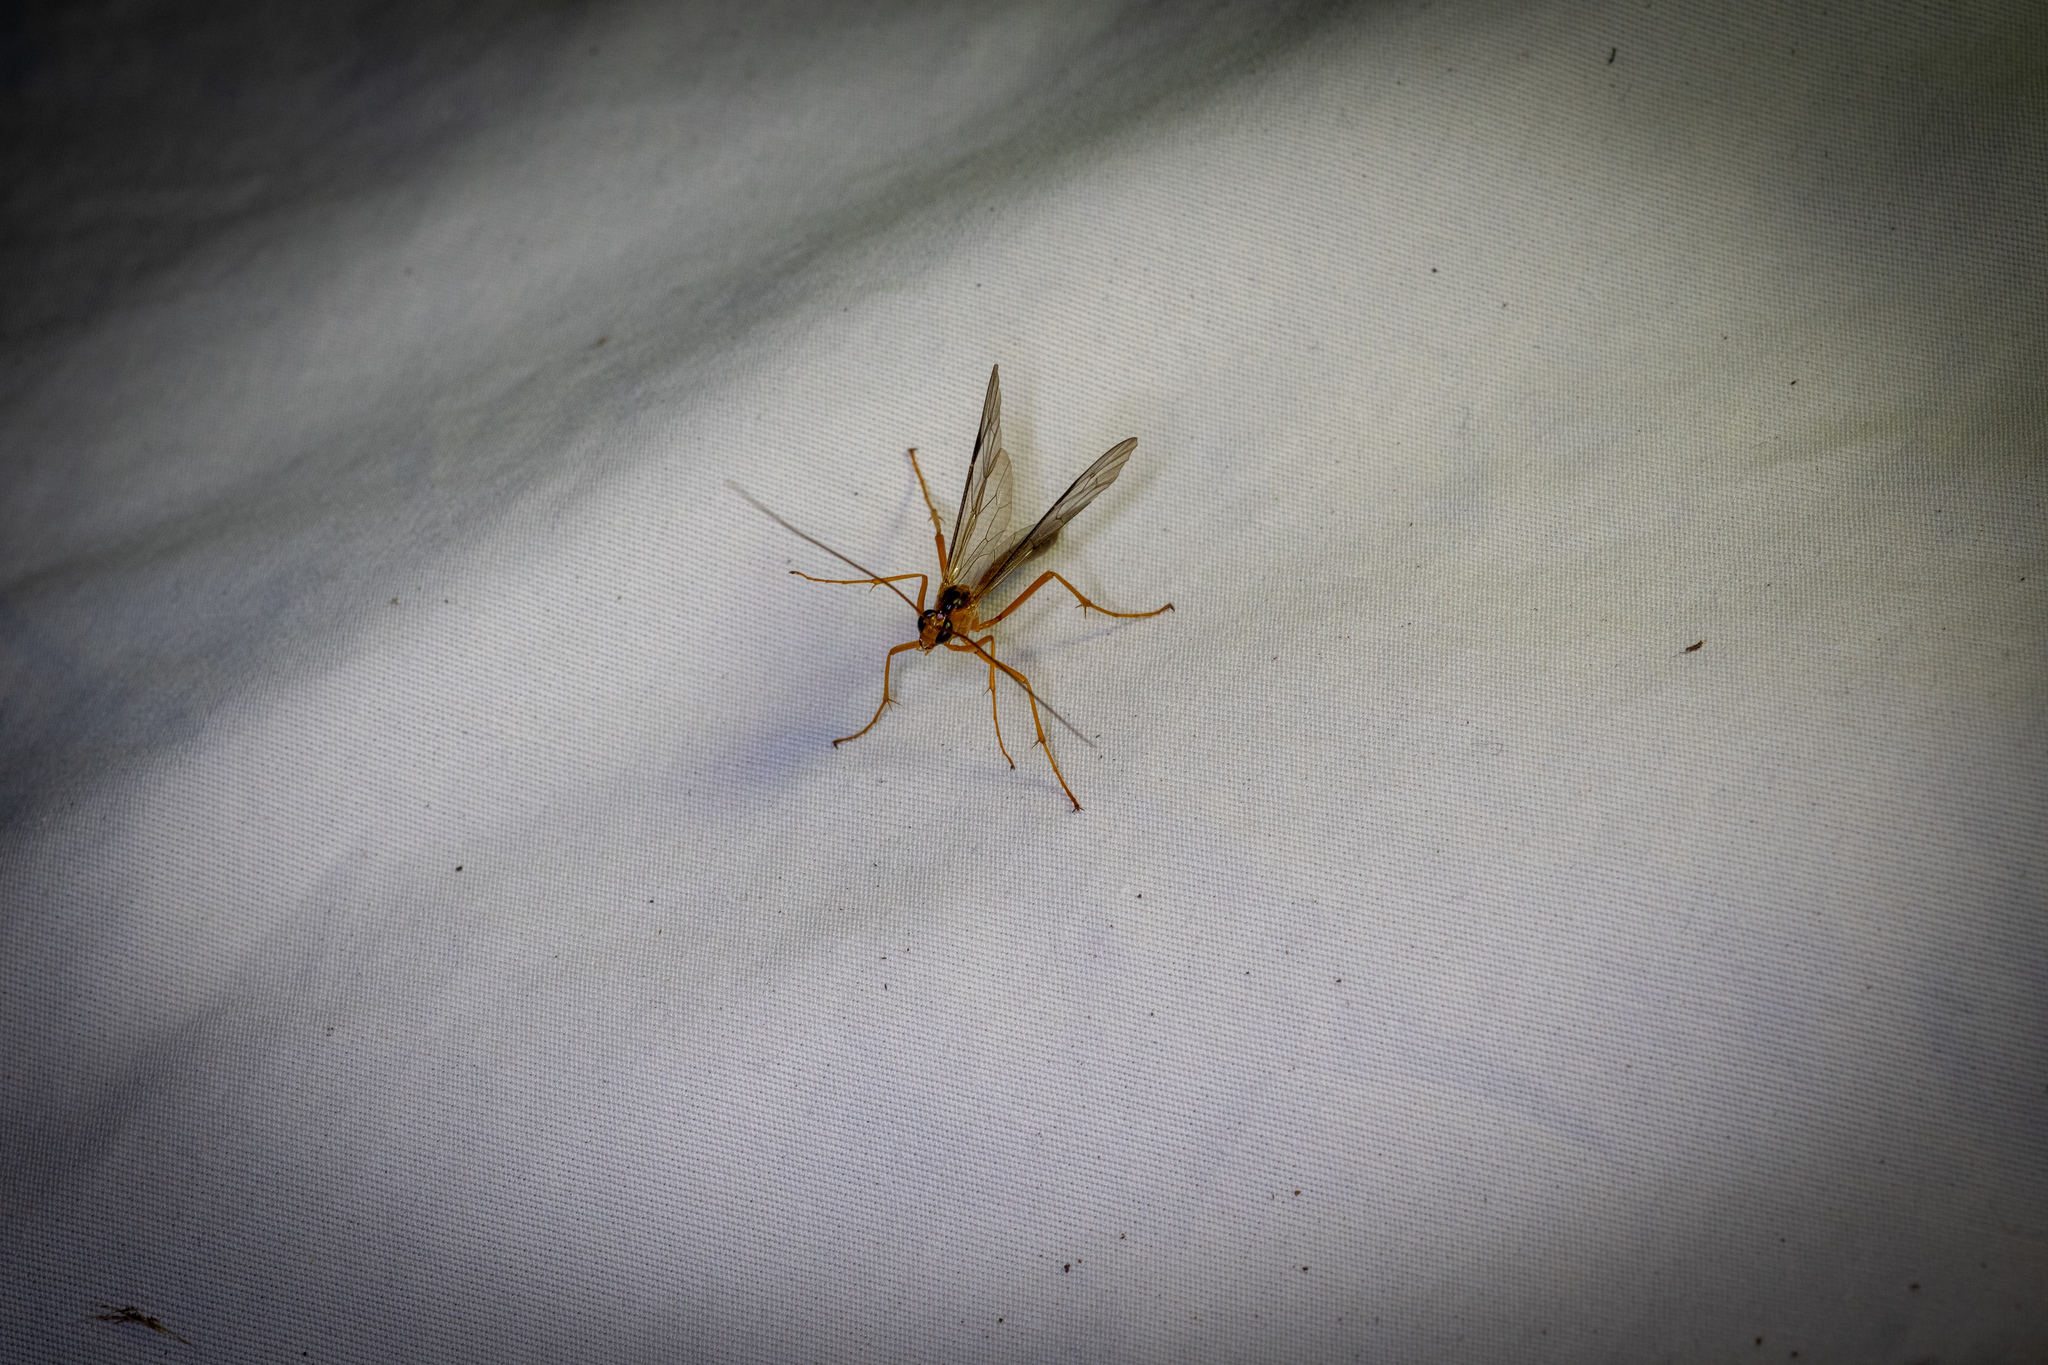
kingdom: Animalia
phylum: Arthropoda
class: Insecta
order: Hymenoptera
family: Ichneumonidae
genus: Netelia
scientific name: Netelia ephippiata
